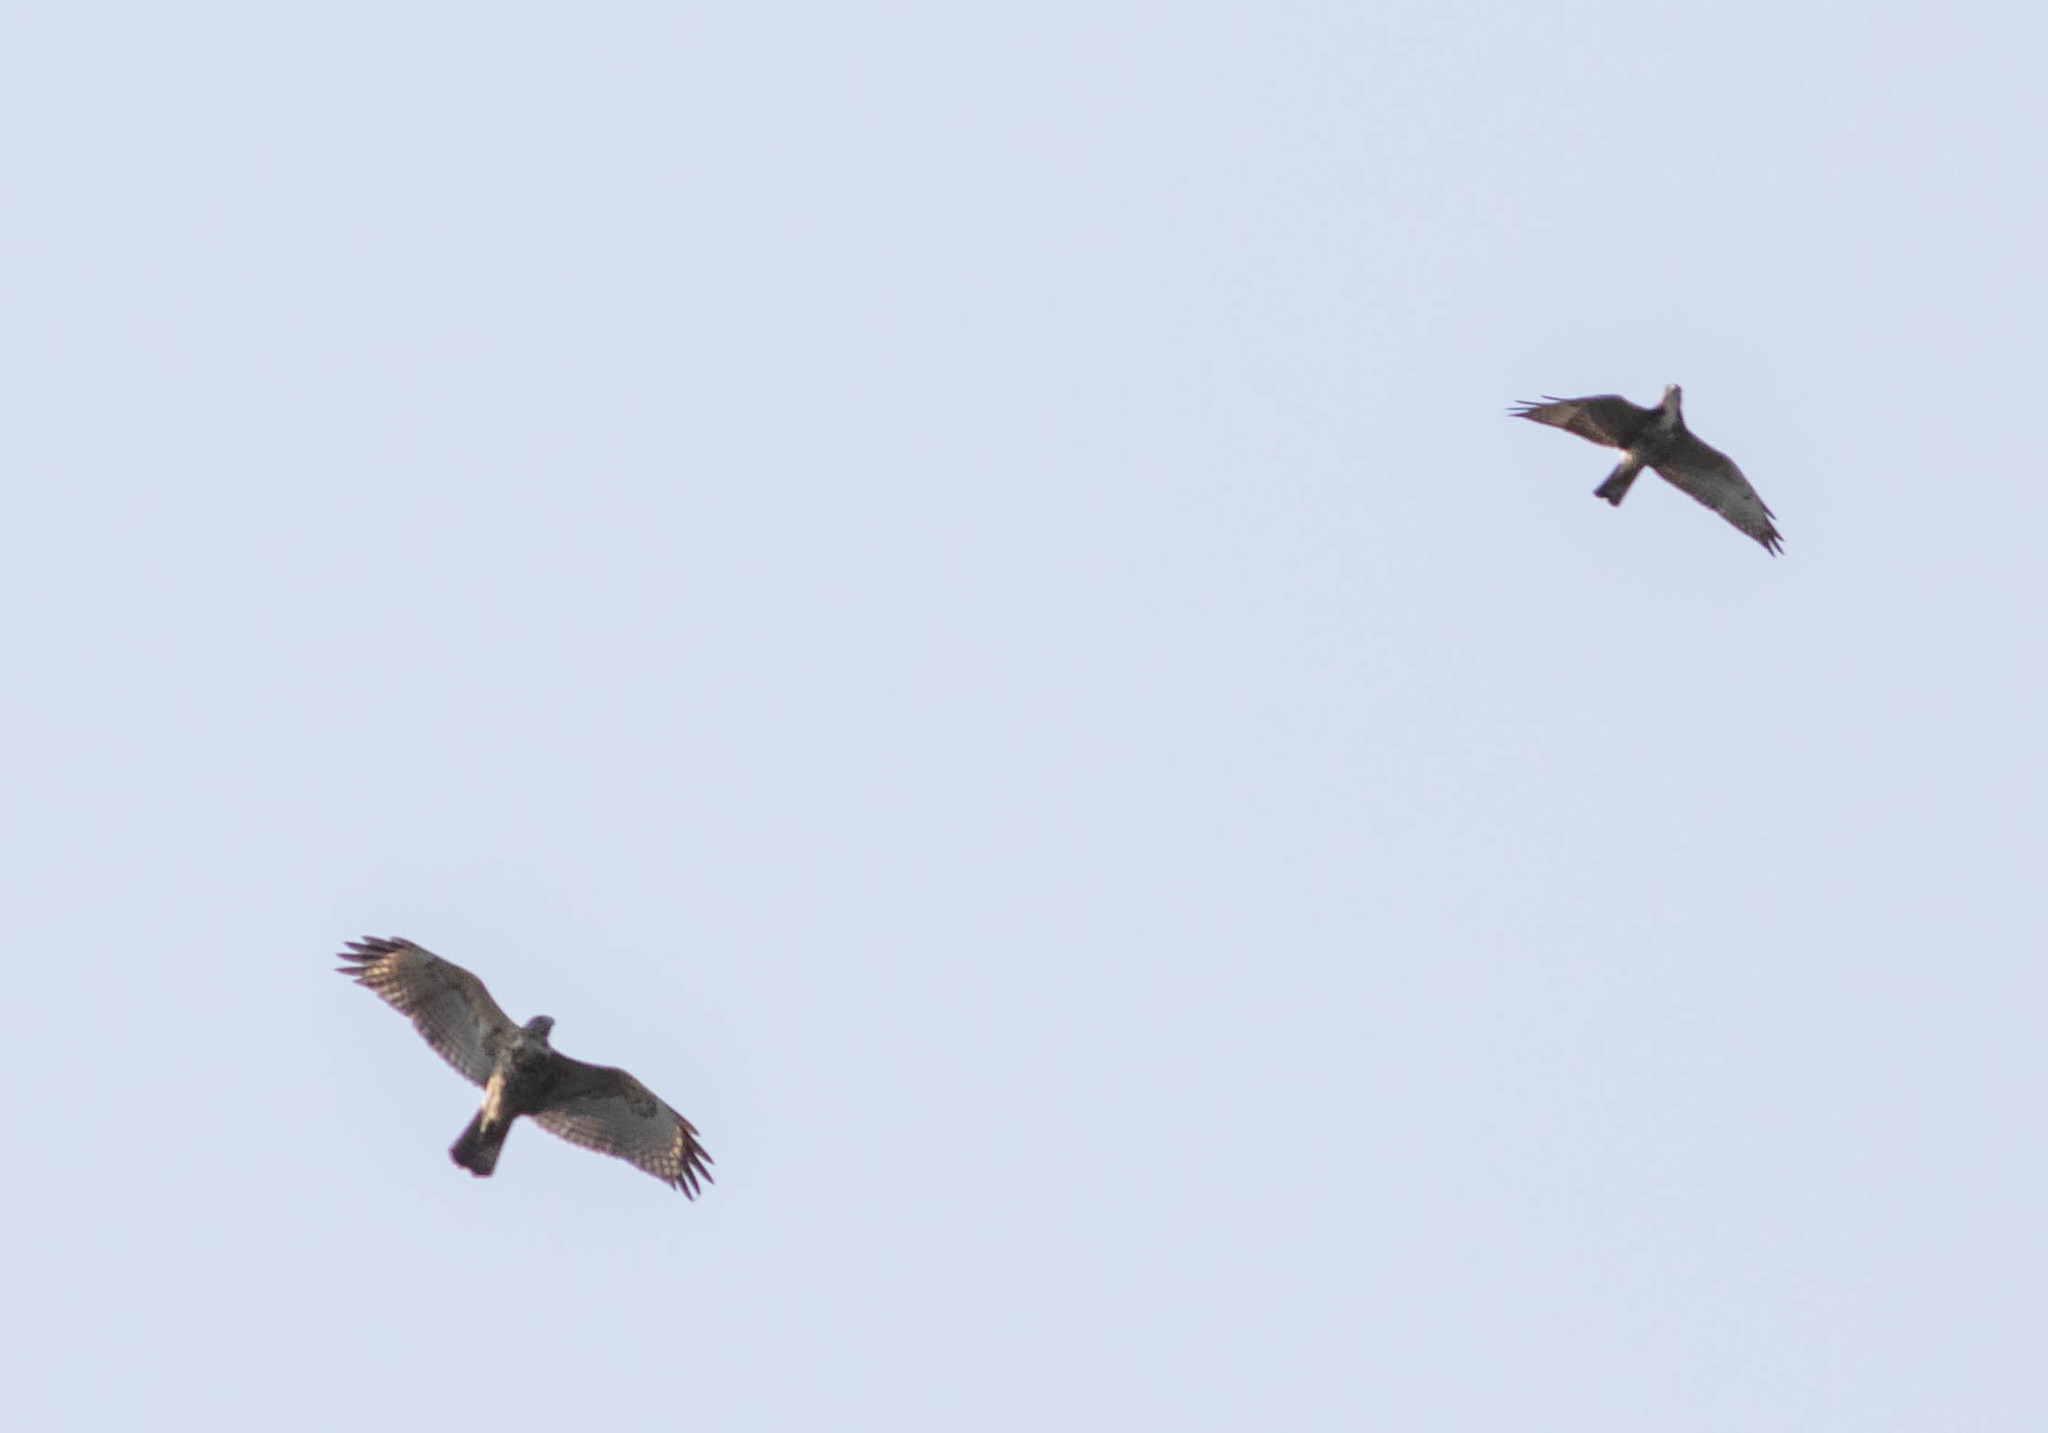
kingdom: Animalia
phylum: Chordata
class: Aves
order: Accipitriformes
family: Accipitridae
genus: Buteo
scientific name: Buteo lineatus
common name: Red-shouldered hawk
